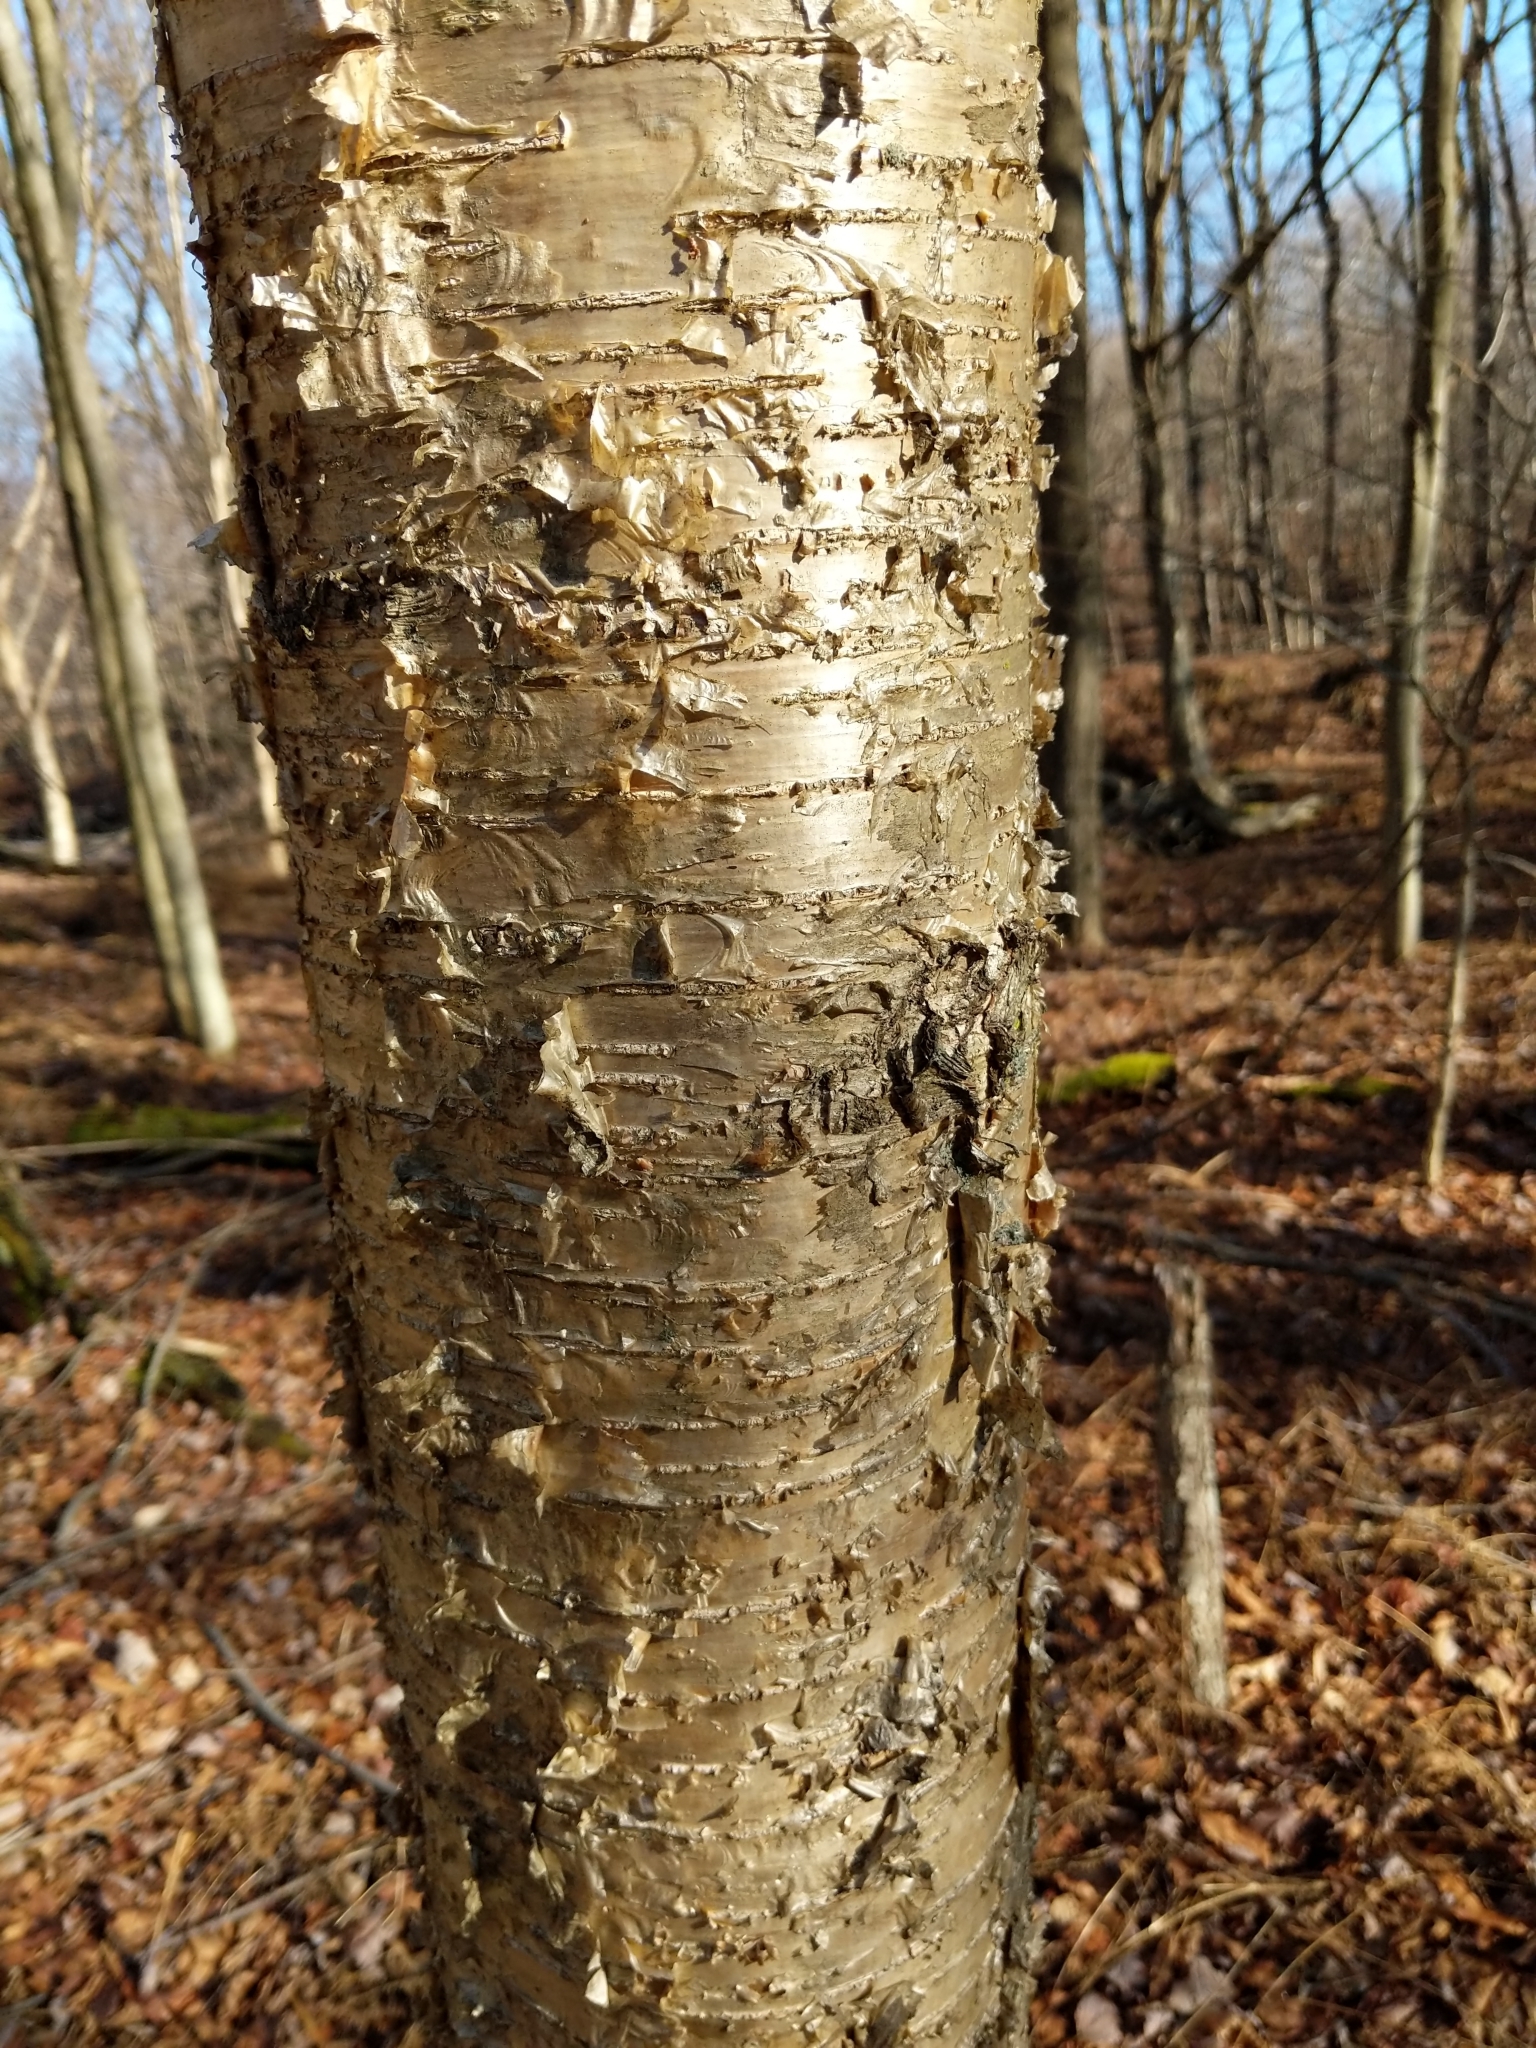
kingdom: Plantae
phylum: Tracheophyta
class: Magnoliopsida
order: Fagales
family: Betulaceae
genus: Betula
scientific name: Betula alleghaniensis
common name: Yellow birch
